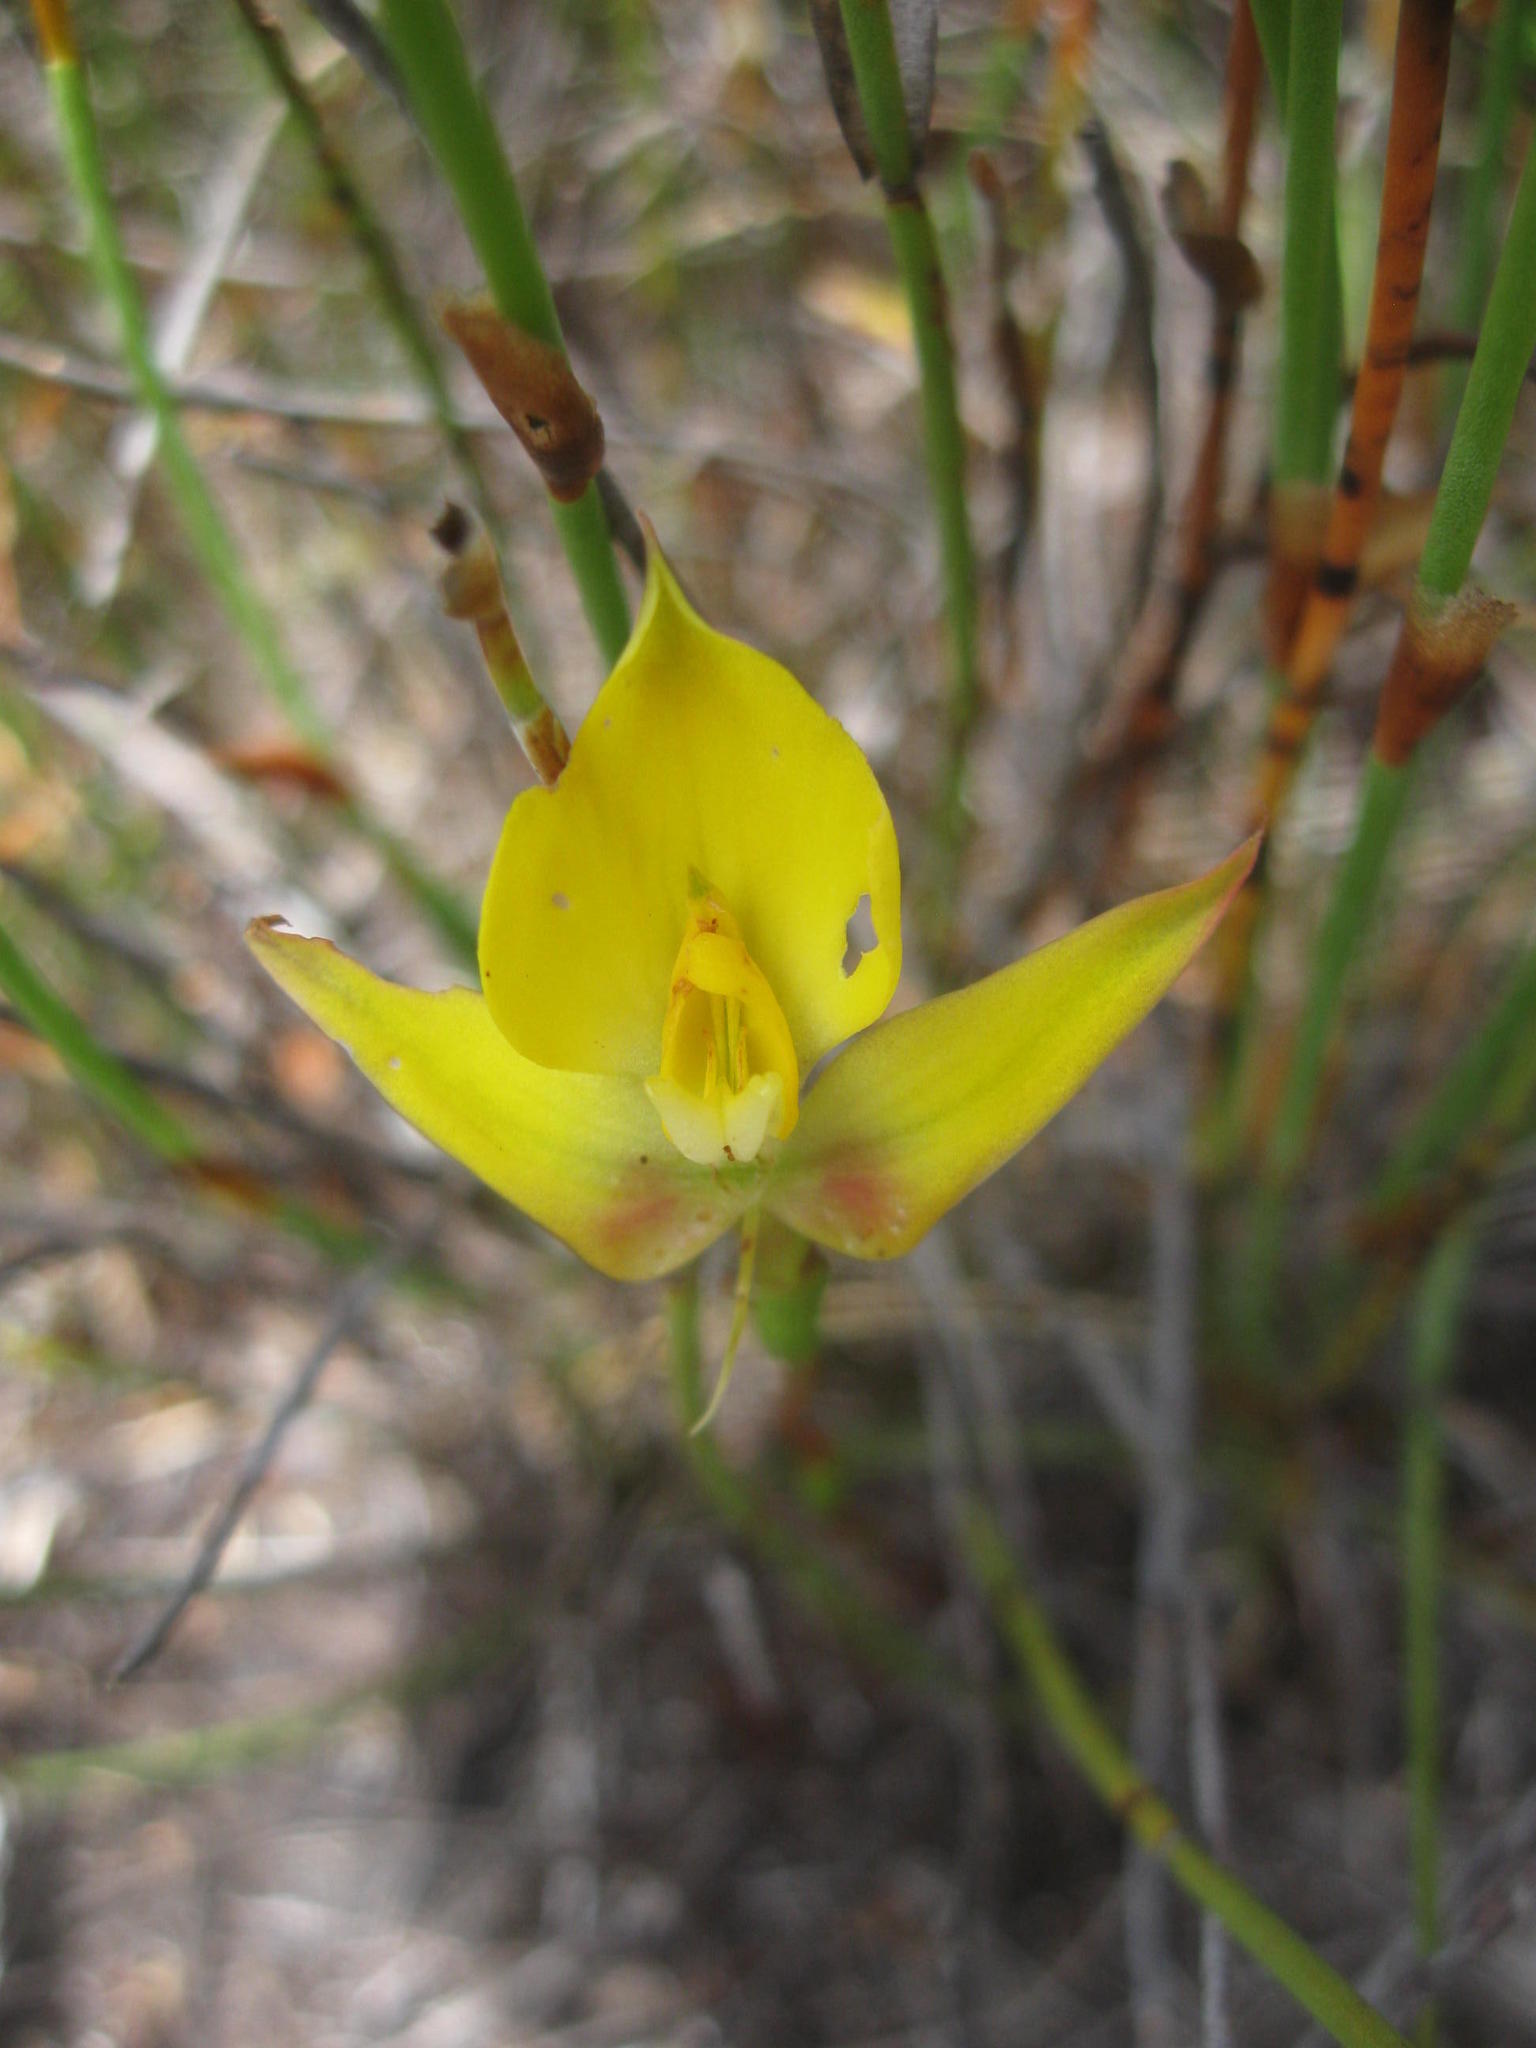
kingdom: Plantae
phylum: Tracheophyta
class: Liliopsida
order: Asparagales
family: Orchidaceae
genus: Disa
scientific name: Disa tenuifolia
